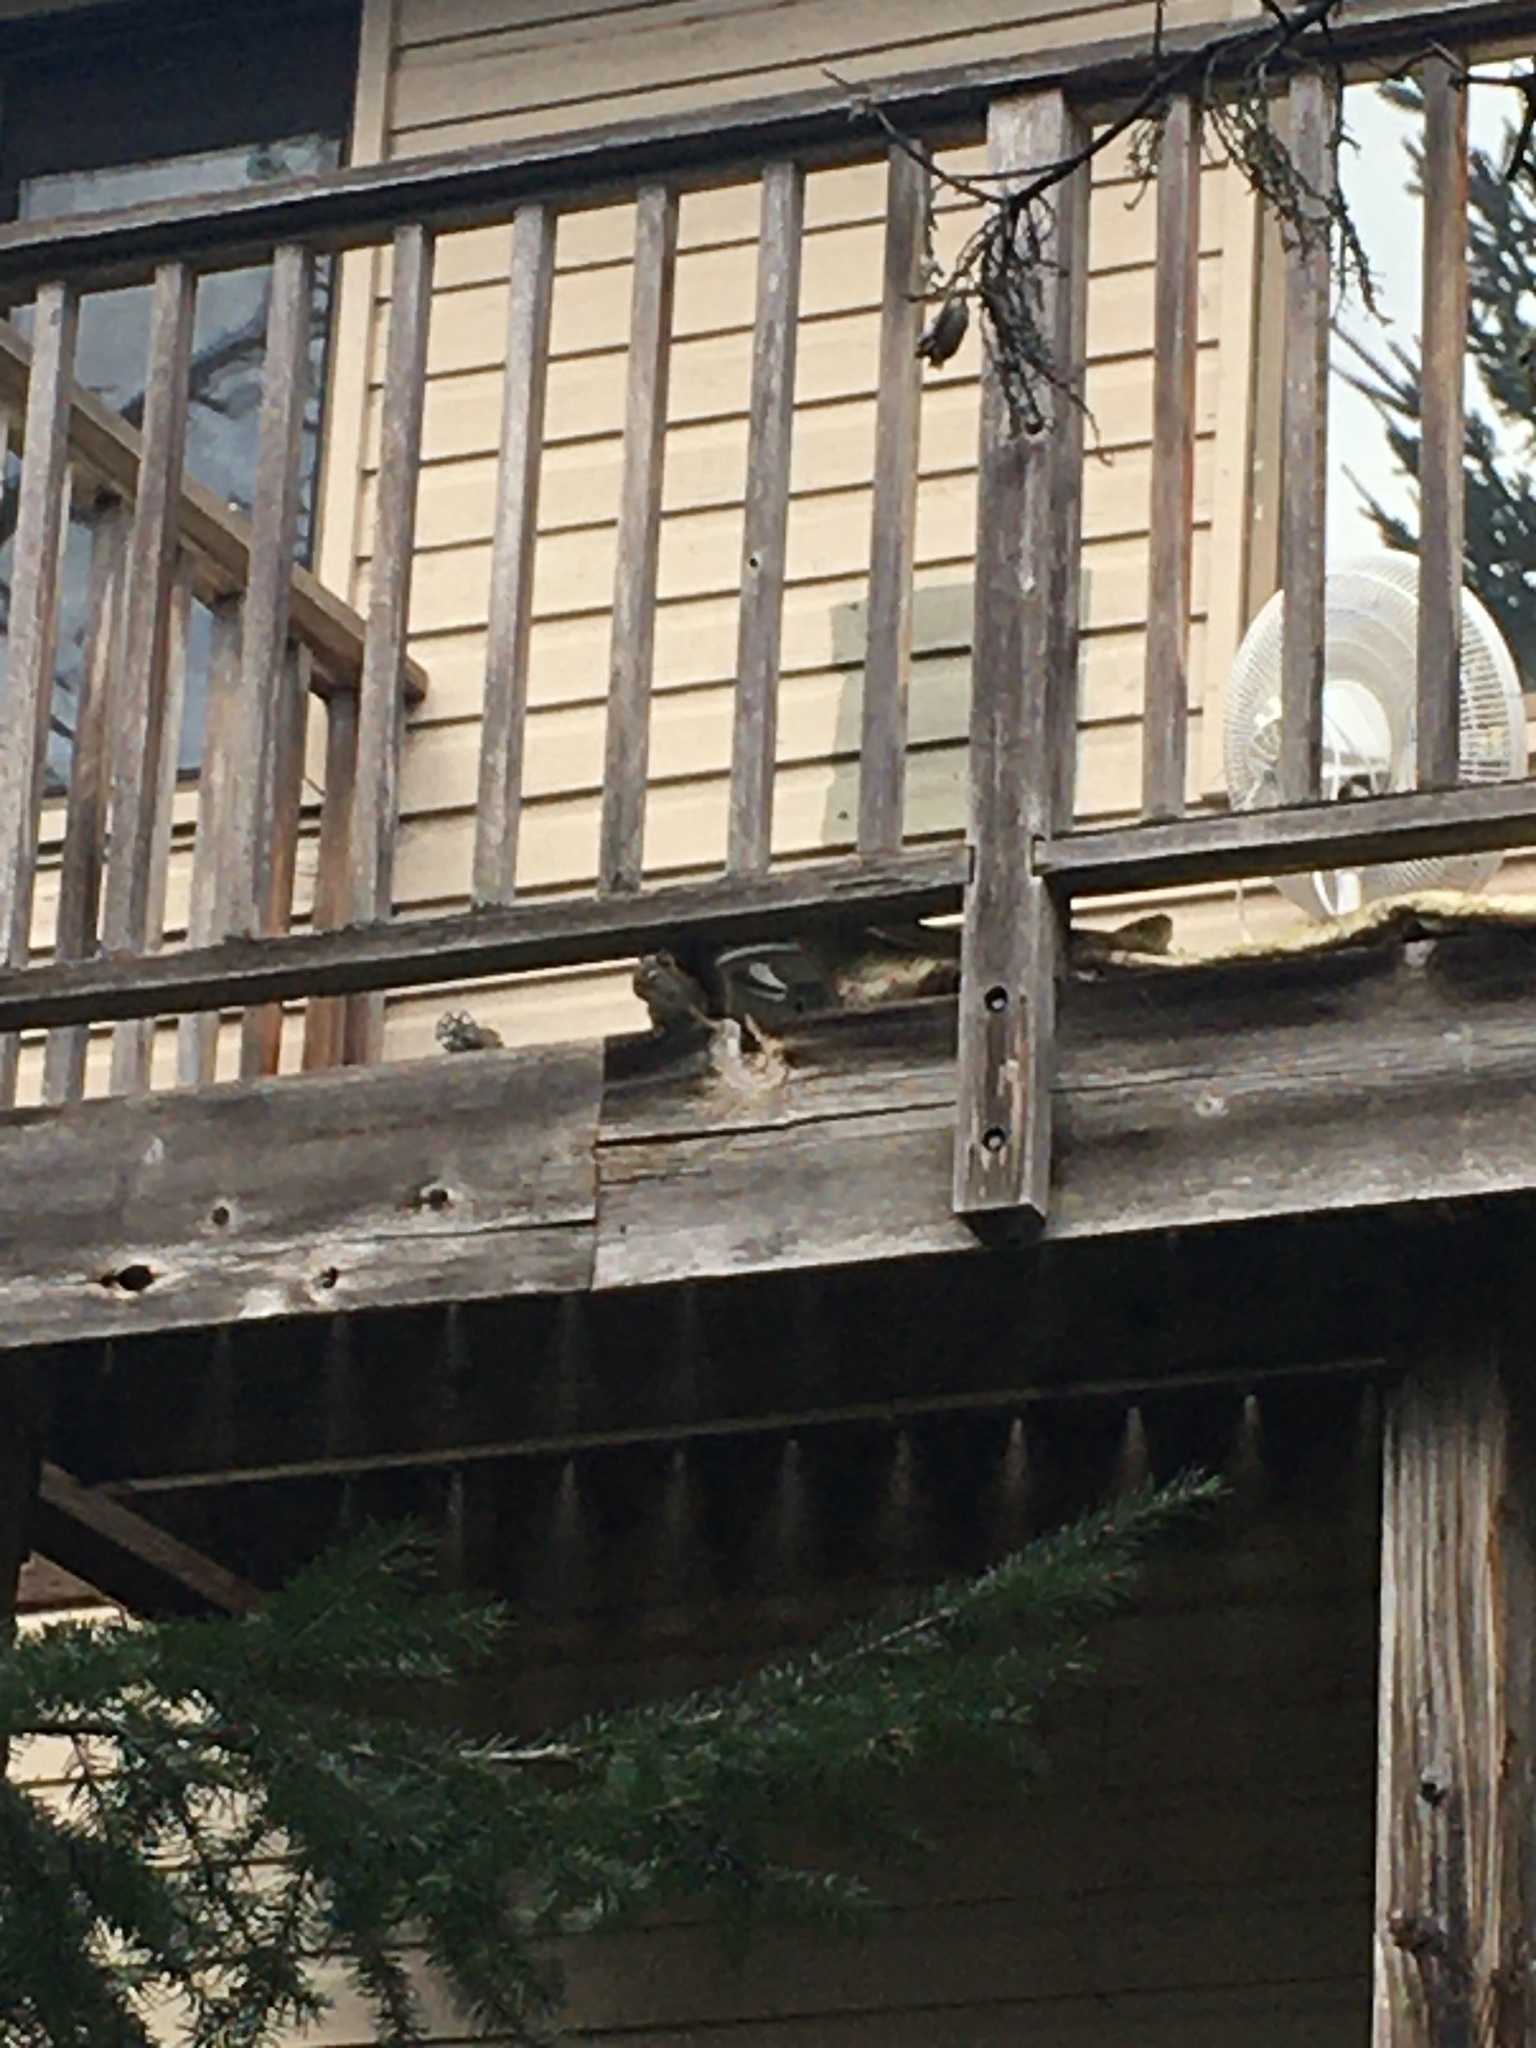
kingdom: Animalia
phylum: Chordata
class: Mammalia
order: Rodentia
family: Sciuridae
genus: Tamiasciurus
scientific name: Tamiasciurus hudsonicus
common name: Red squirrel
